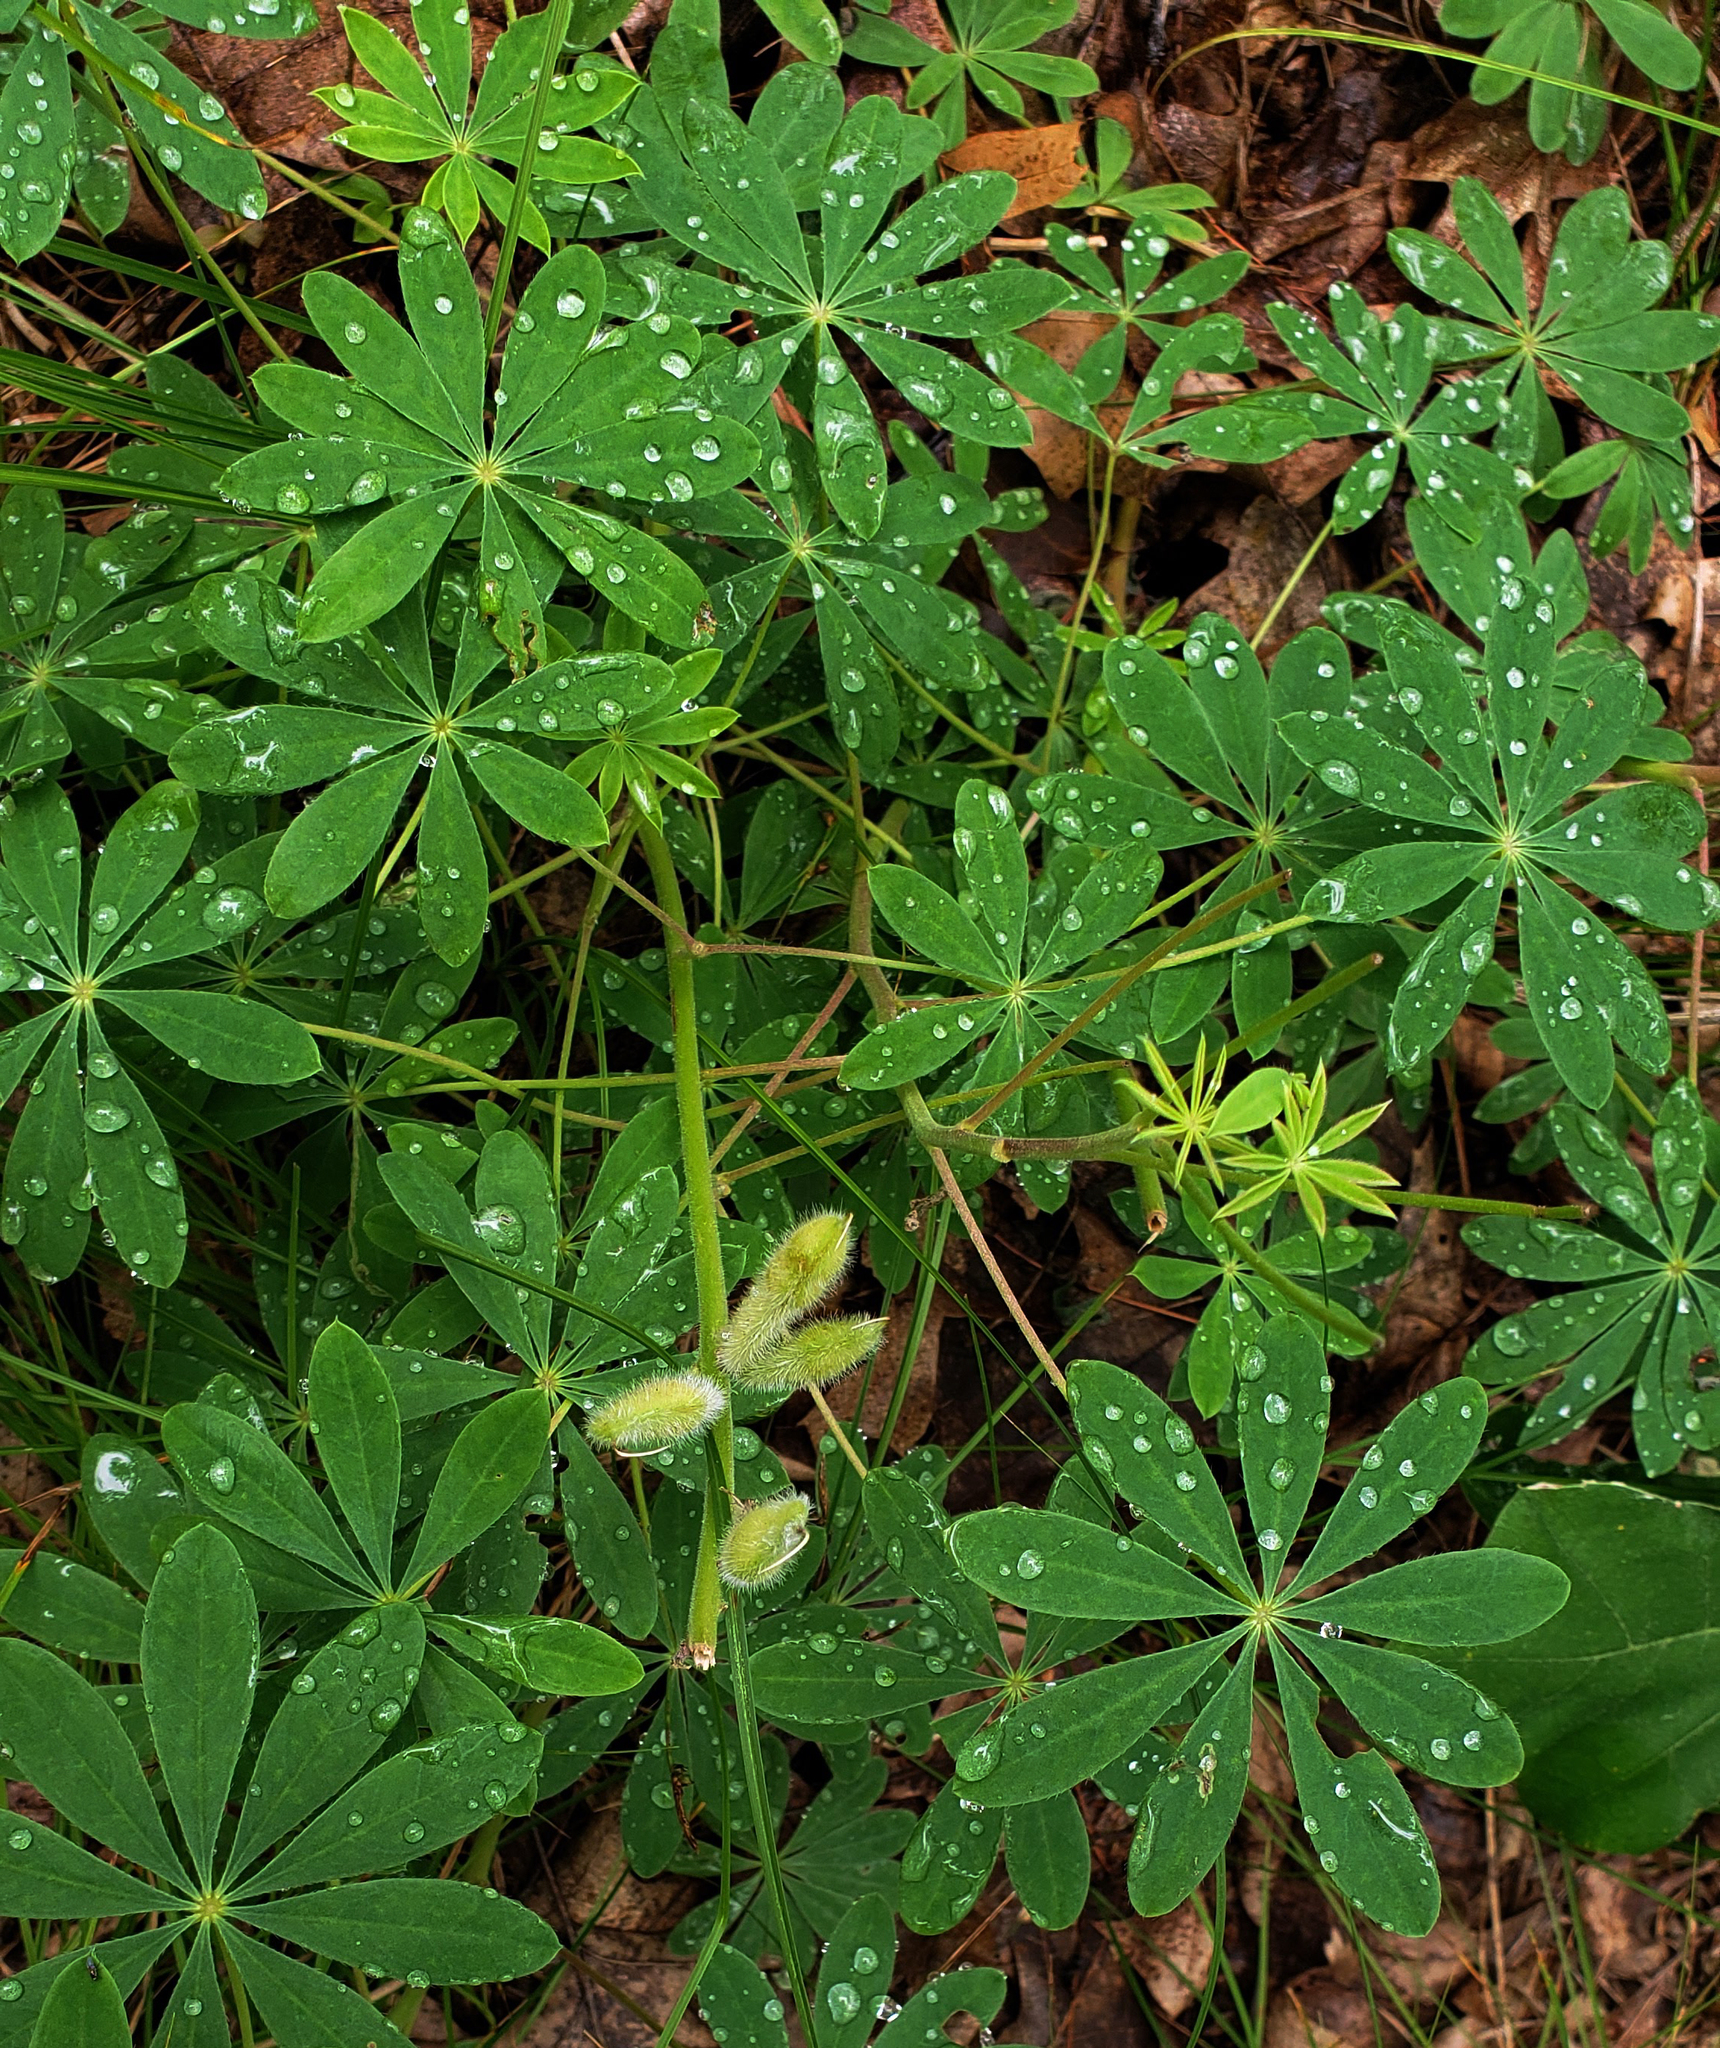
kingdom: Plantae
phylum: Tracheophyta
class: Magnoliopsida
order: Fabales
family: Fabaceae
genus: Lupinus
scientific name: Lupinus perennis
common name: Sundial lupine
